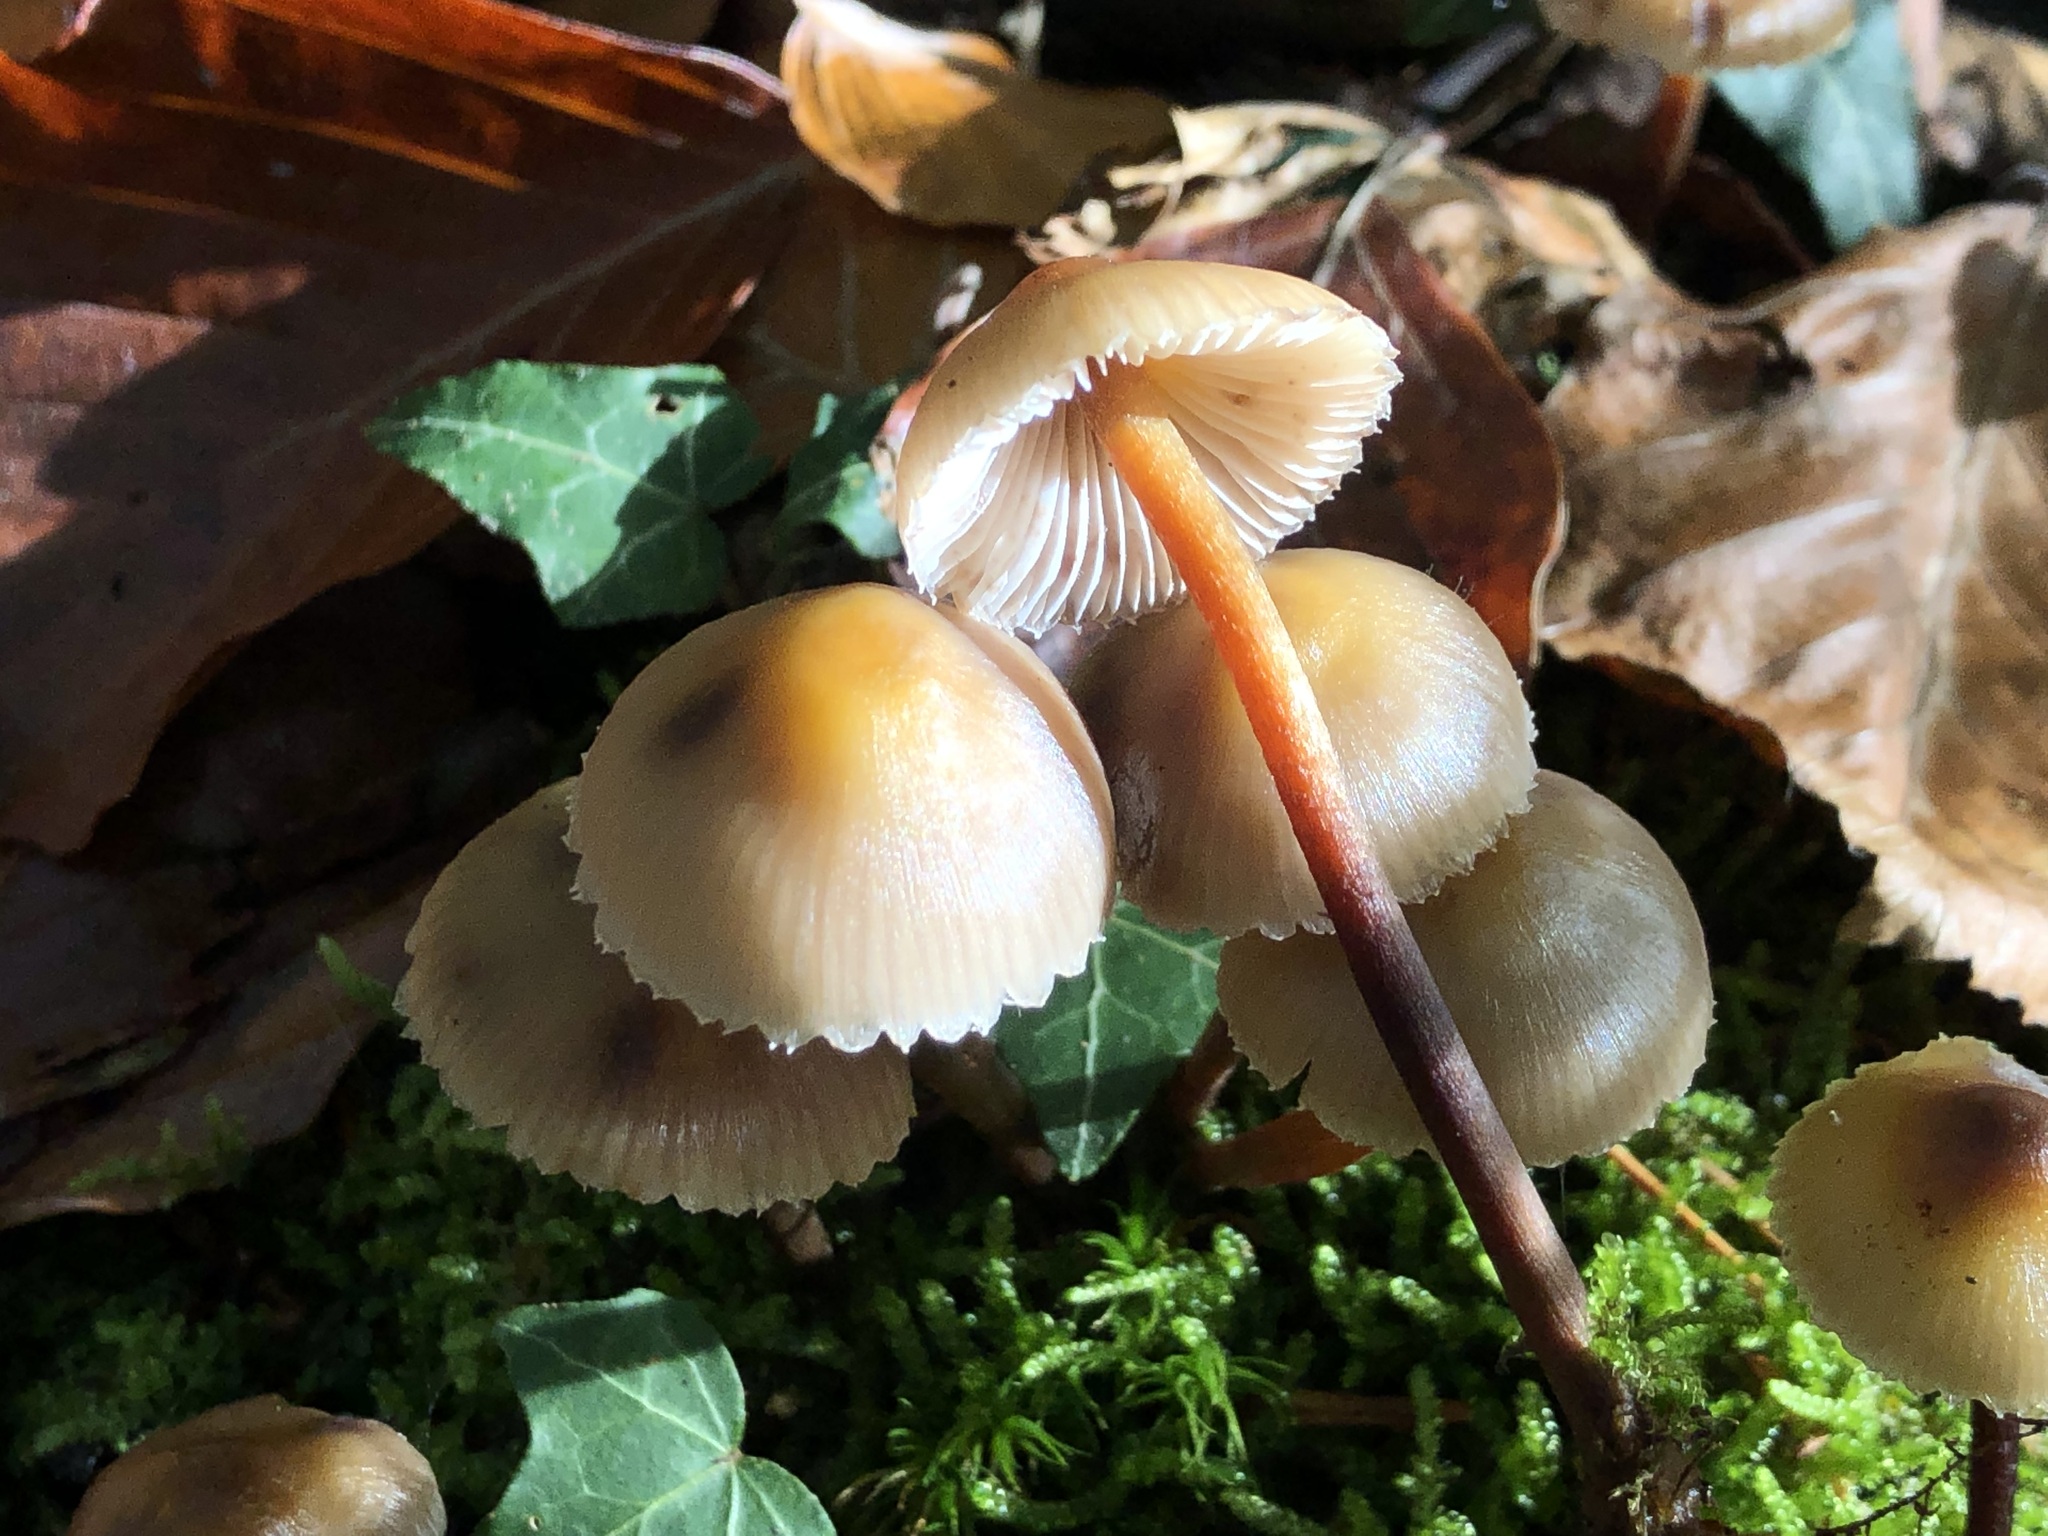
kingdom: Fungi
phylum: Basidiomycota
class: Agaricomycetes
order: Agaricales
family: Mycenaceae
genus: Mycena
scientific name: Mycena inclinata
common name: Clustered bonnet
